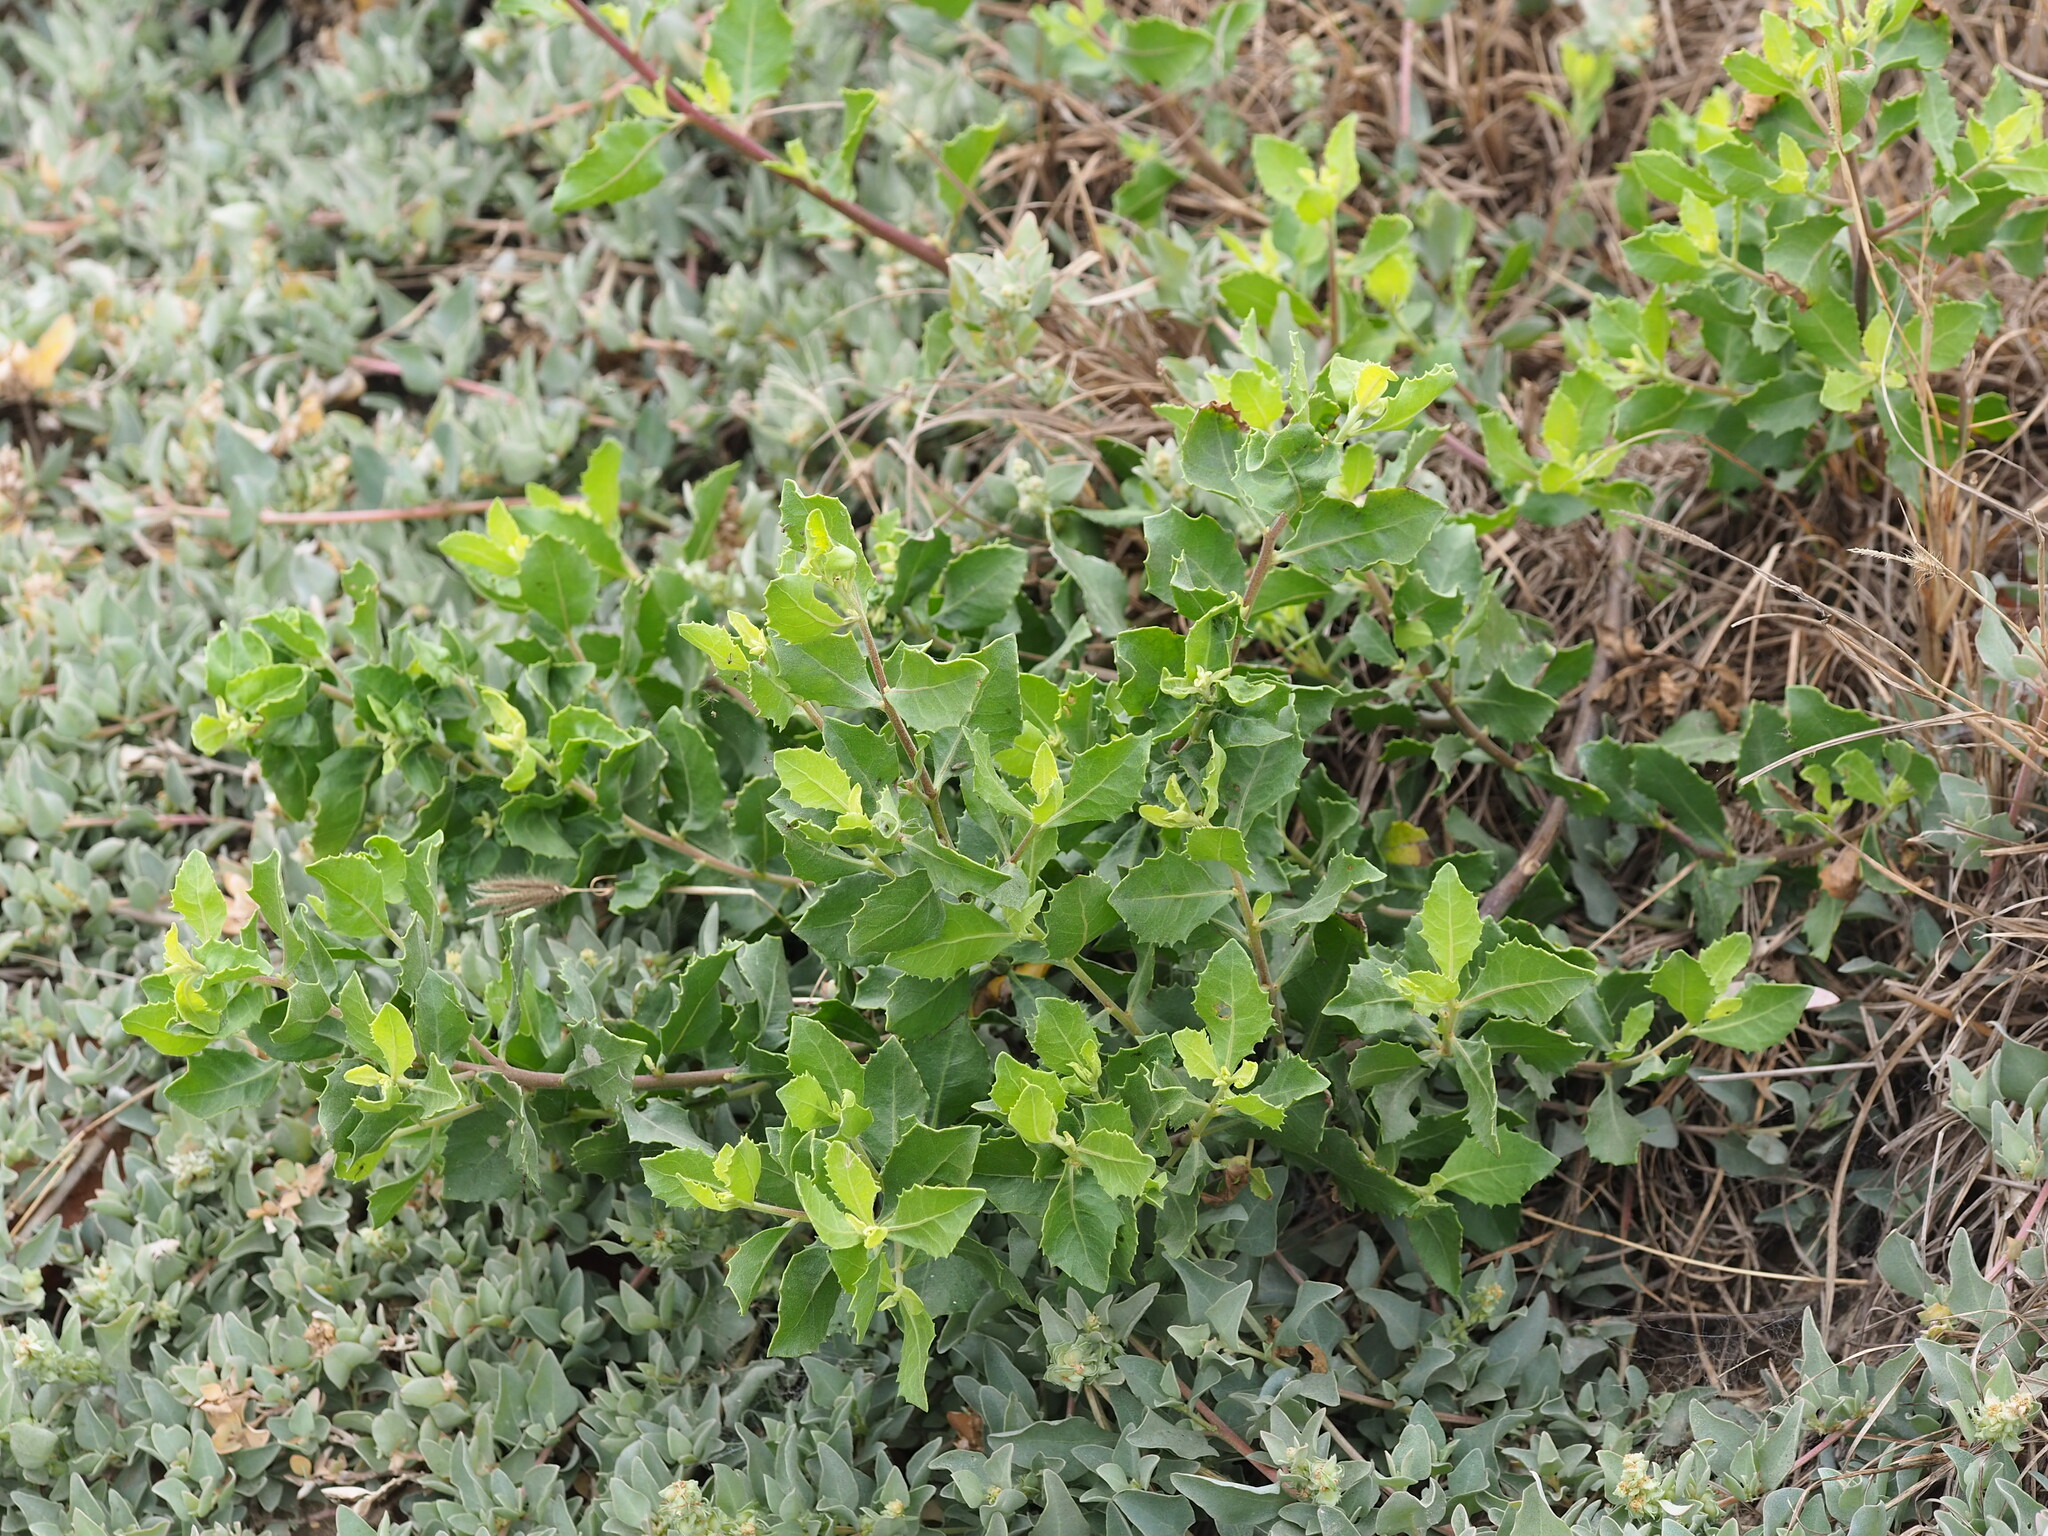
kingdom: Plantae
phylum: Tracheophyta
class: Magnoliopsida
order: Asterales
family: Asteraceae
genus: Pluchea
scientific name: Pluchea indica
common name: Indian fleabane
